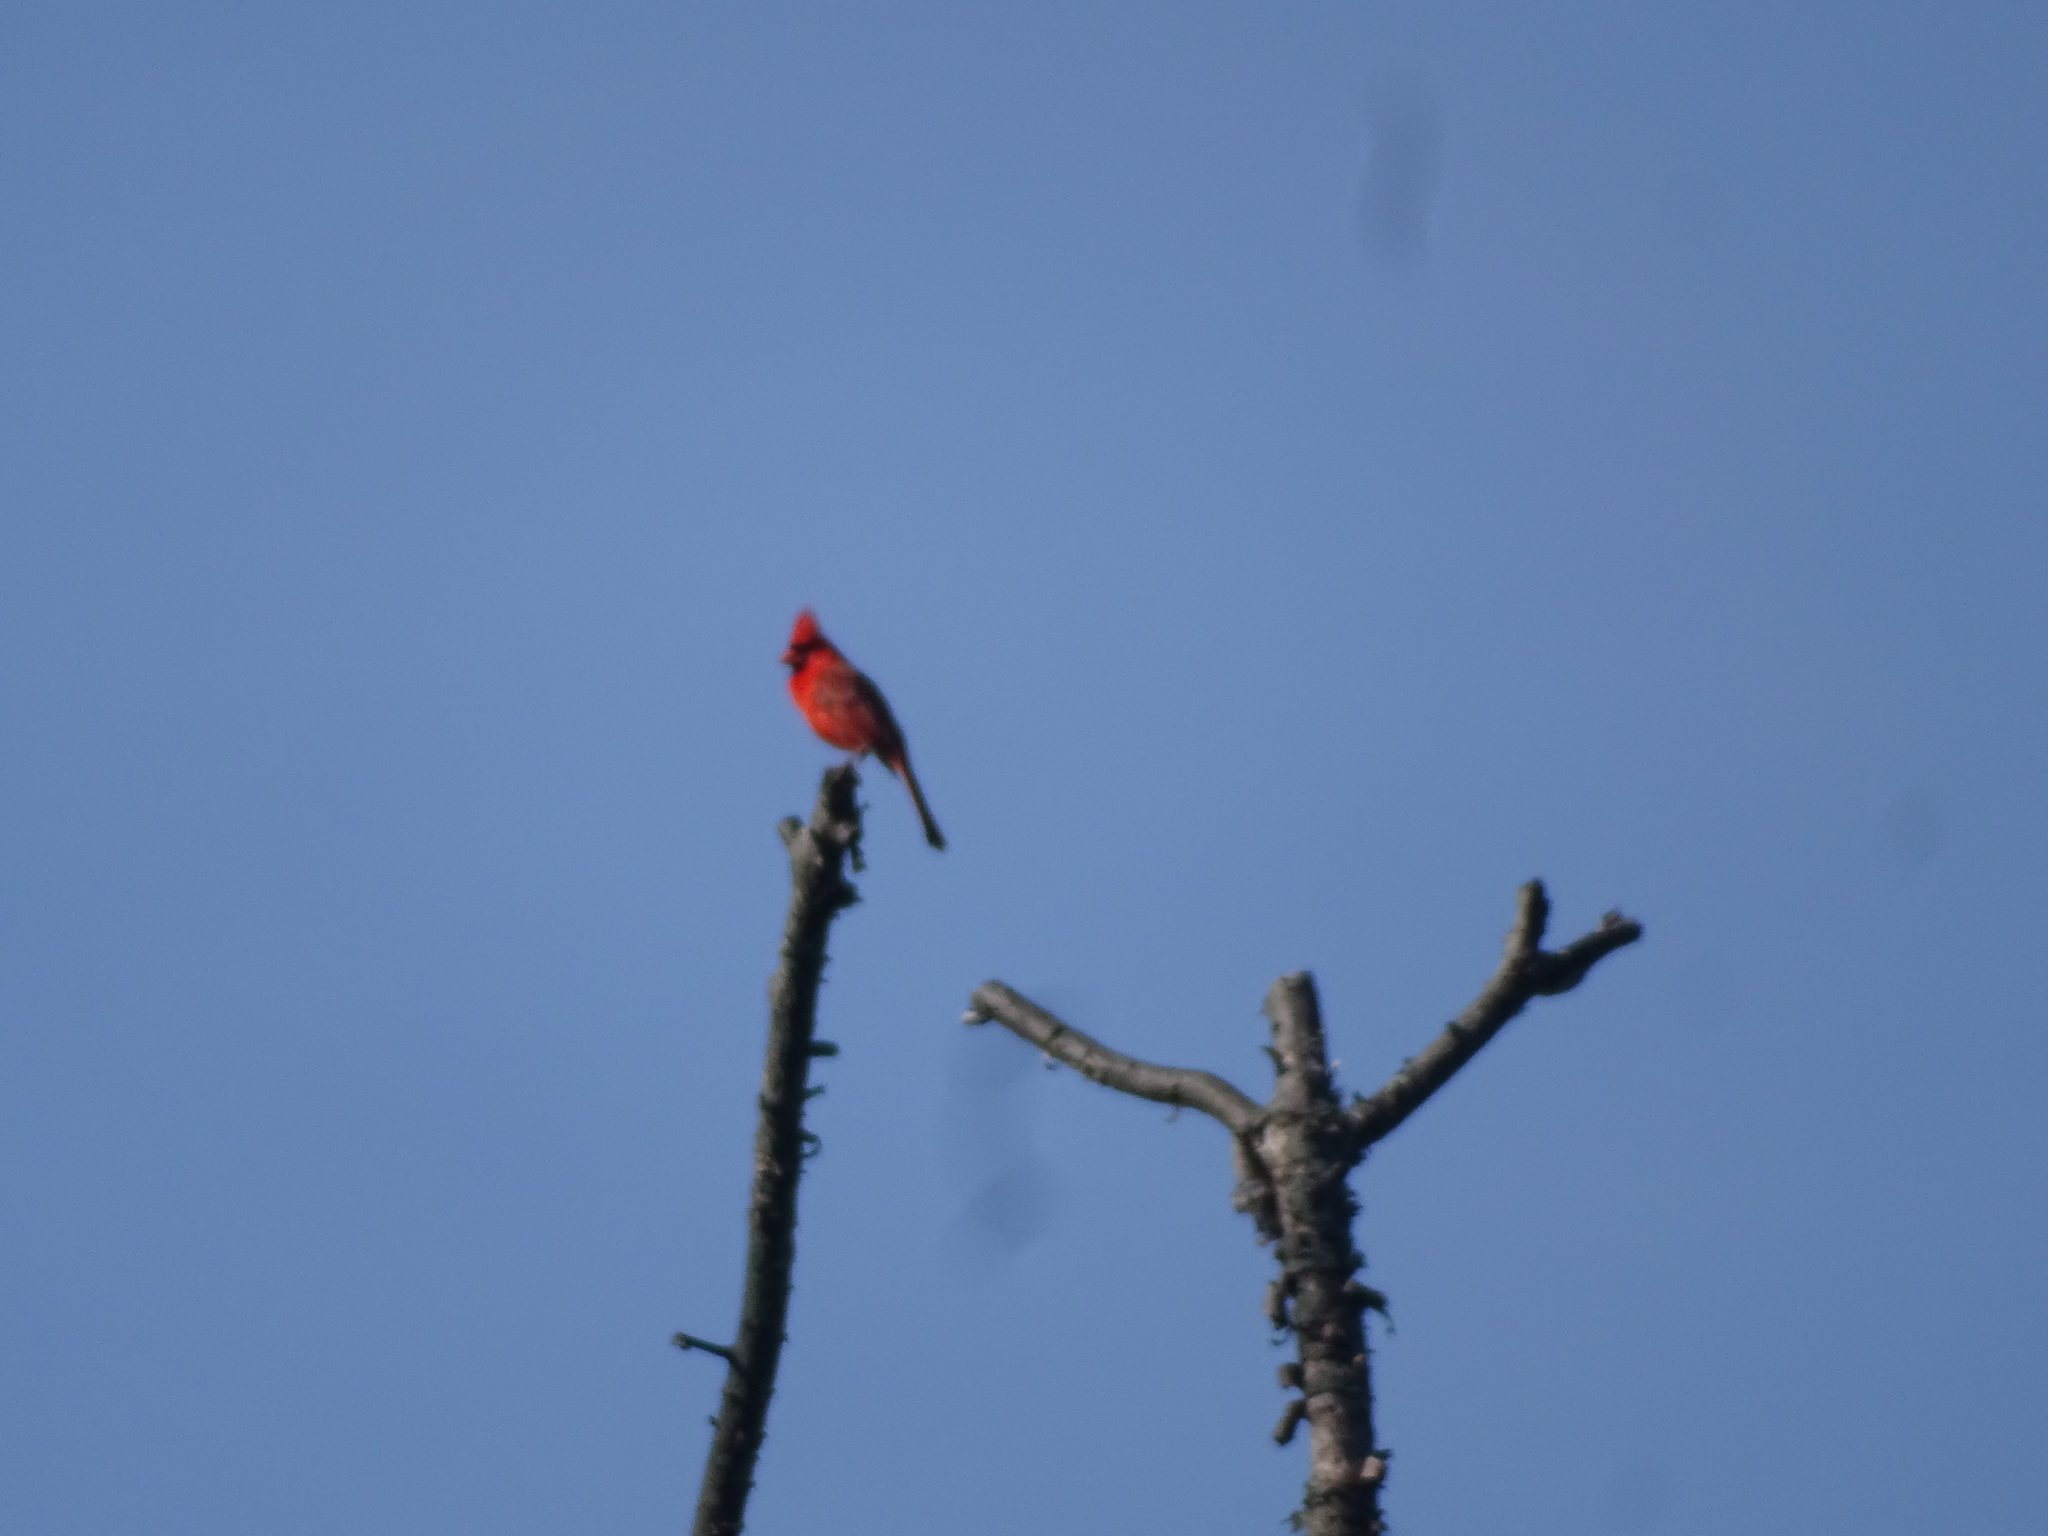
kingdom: Animalia
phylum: Chordata
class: Aves
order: Passeriformes
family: Cardinalidae
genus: Cardinalis
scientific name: Cardinalis cardinalis
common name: Northern cardinal
